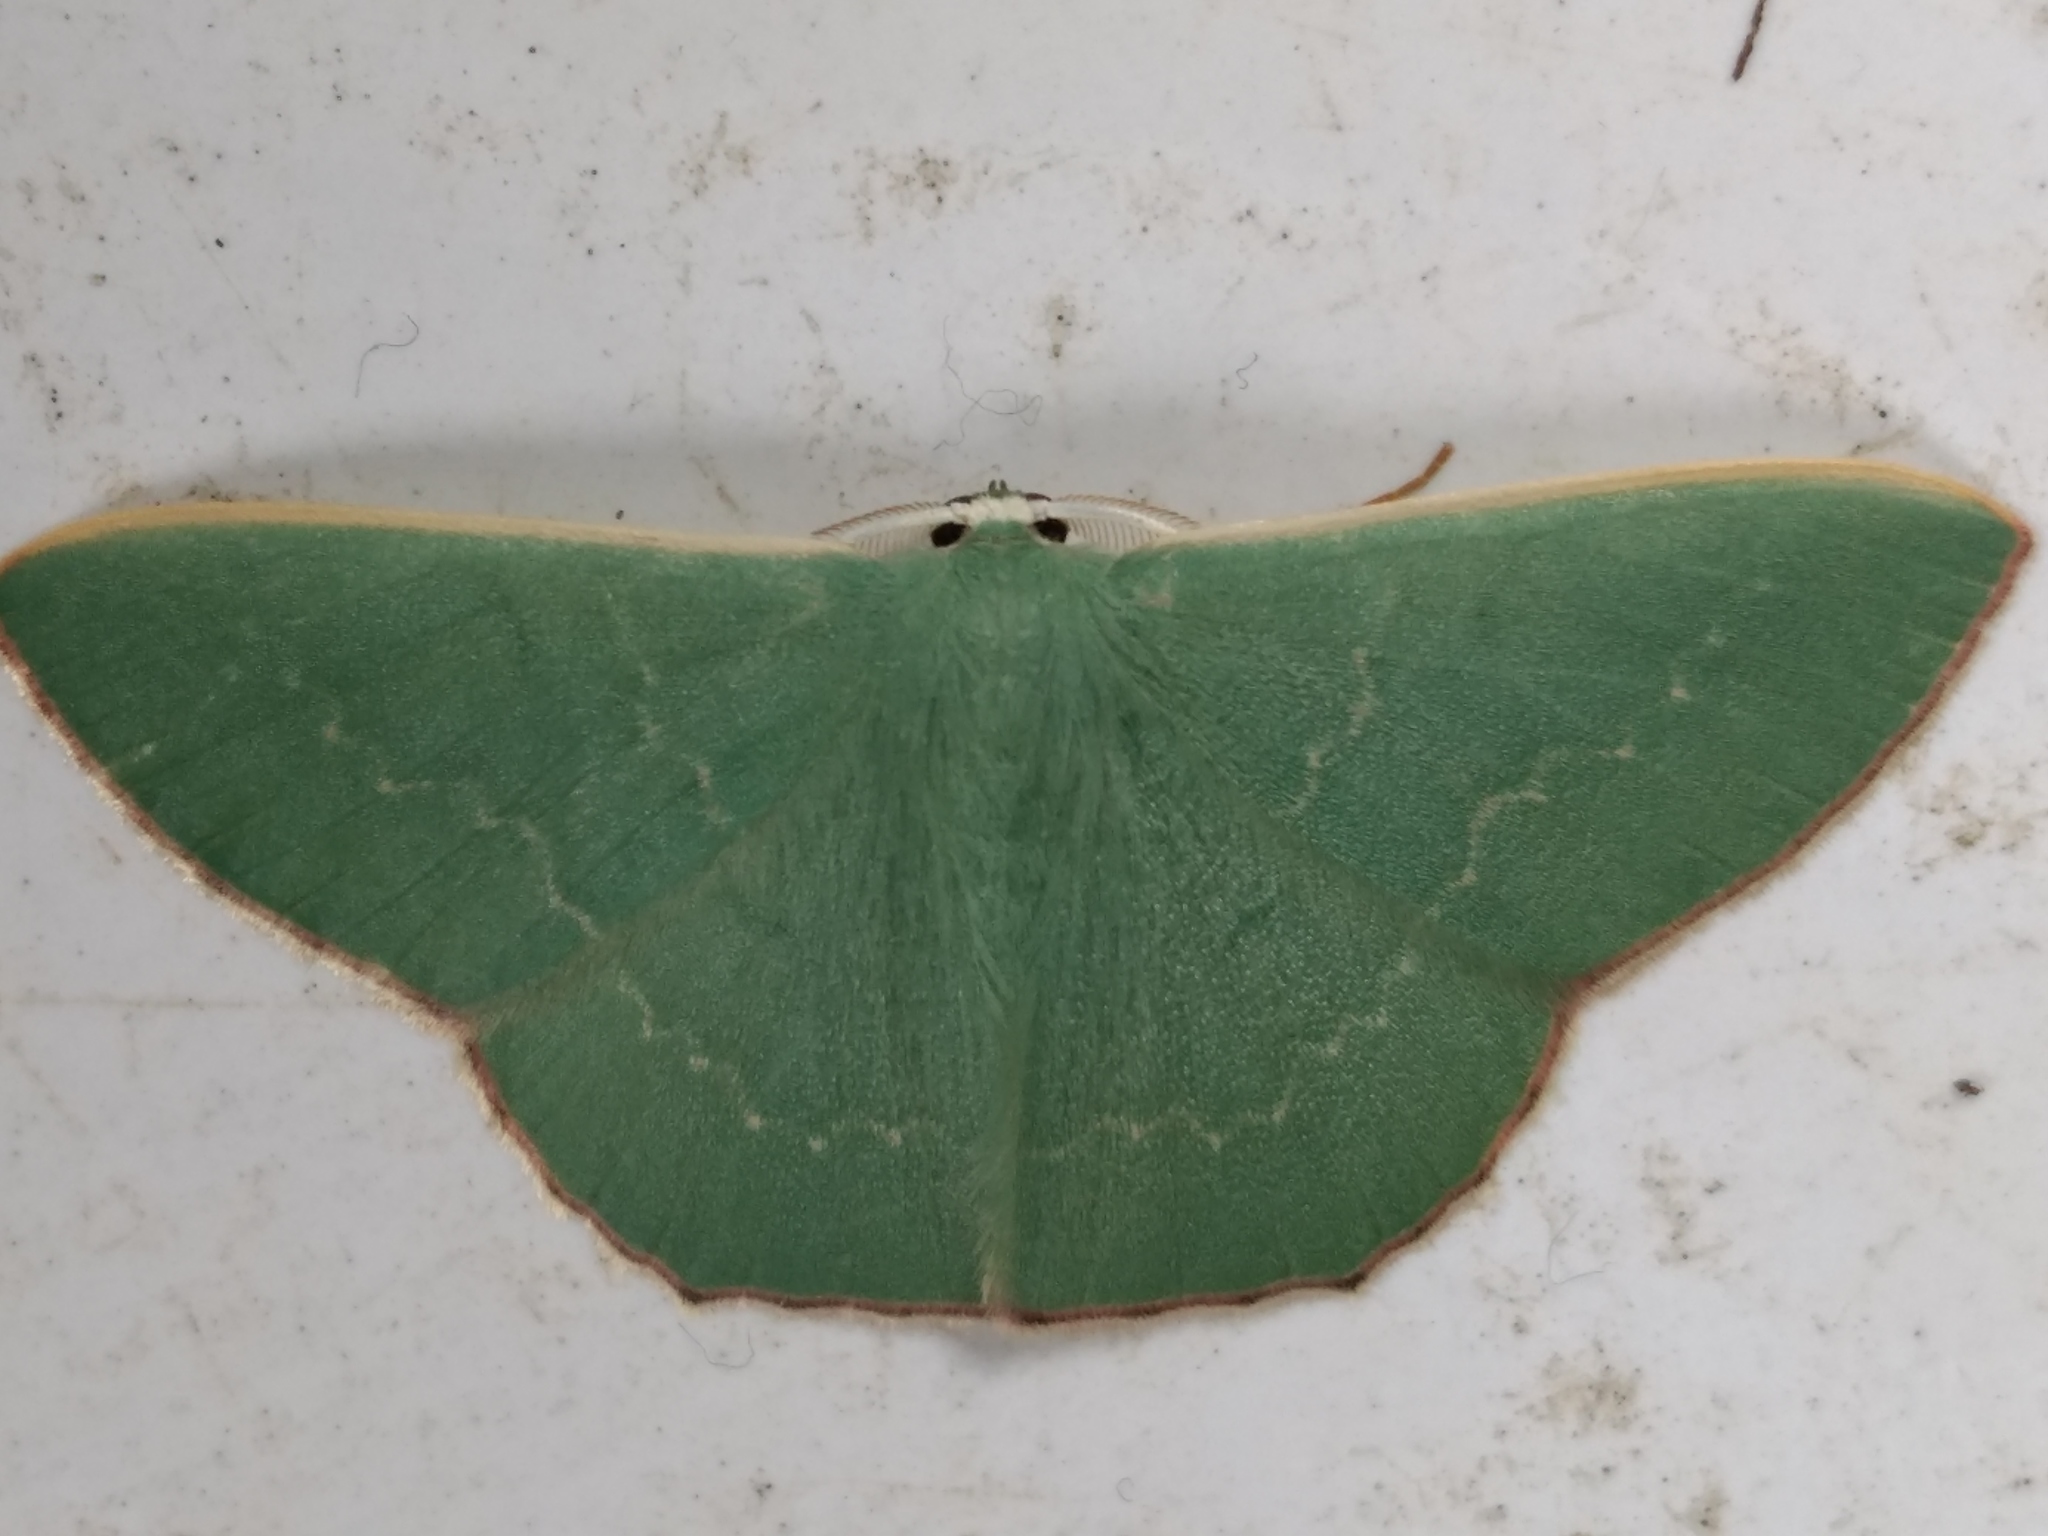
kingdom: Animalia
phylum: Arthropoda
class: Insecta
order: Lepidoptera
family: Geometridae
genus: Prasinocyma
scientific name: Prasinocyma semicrocea
